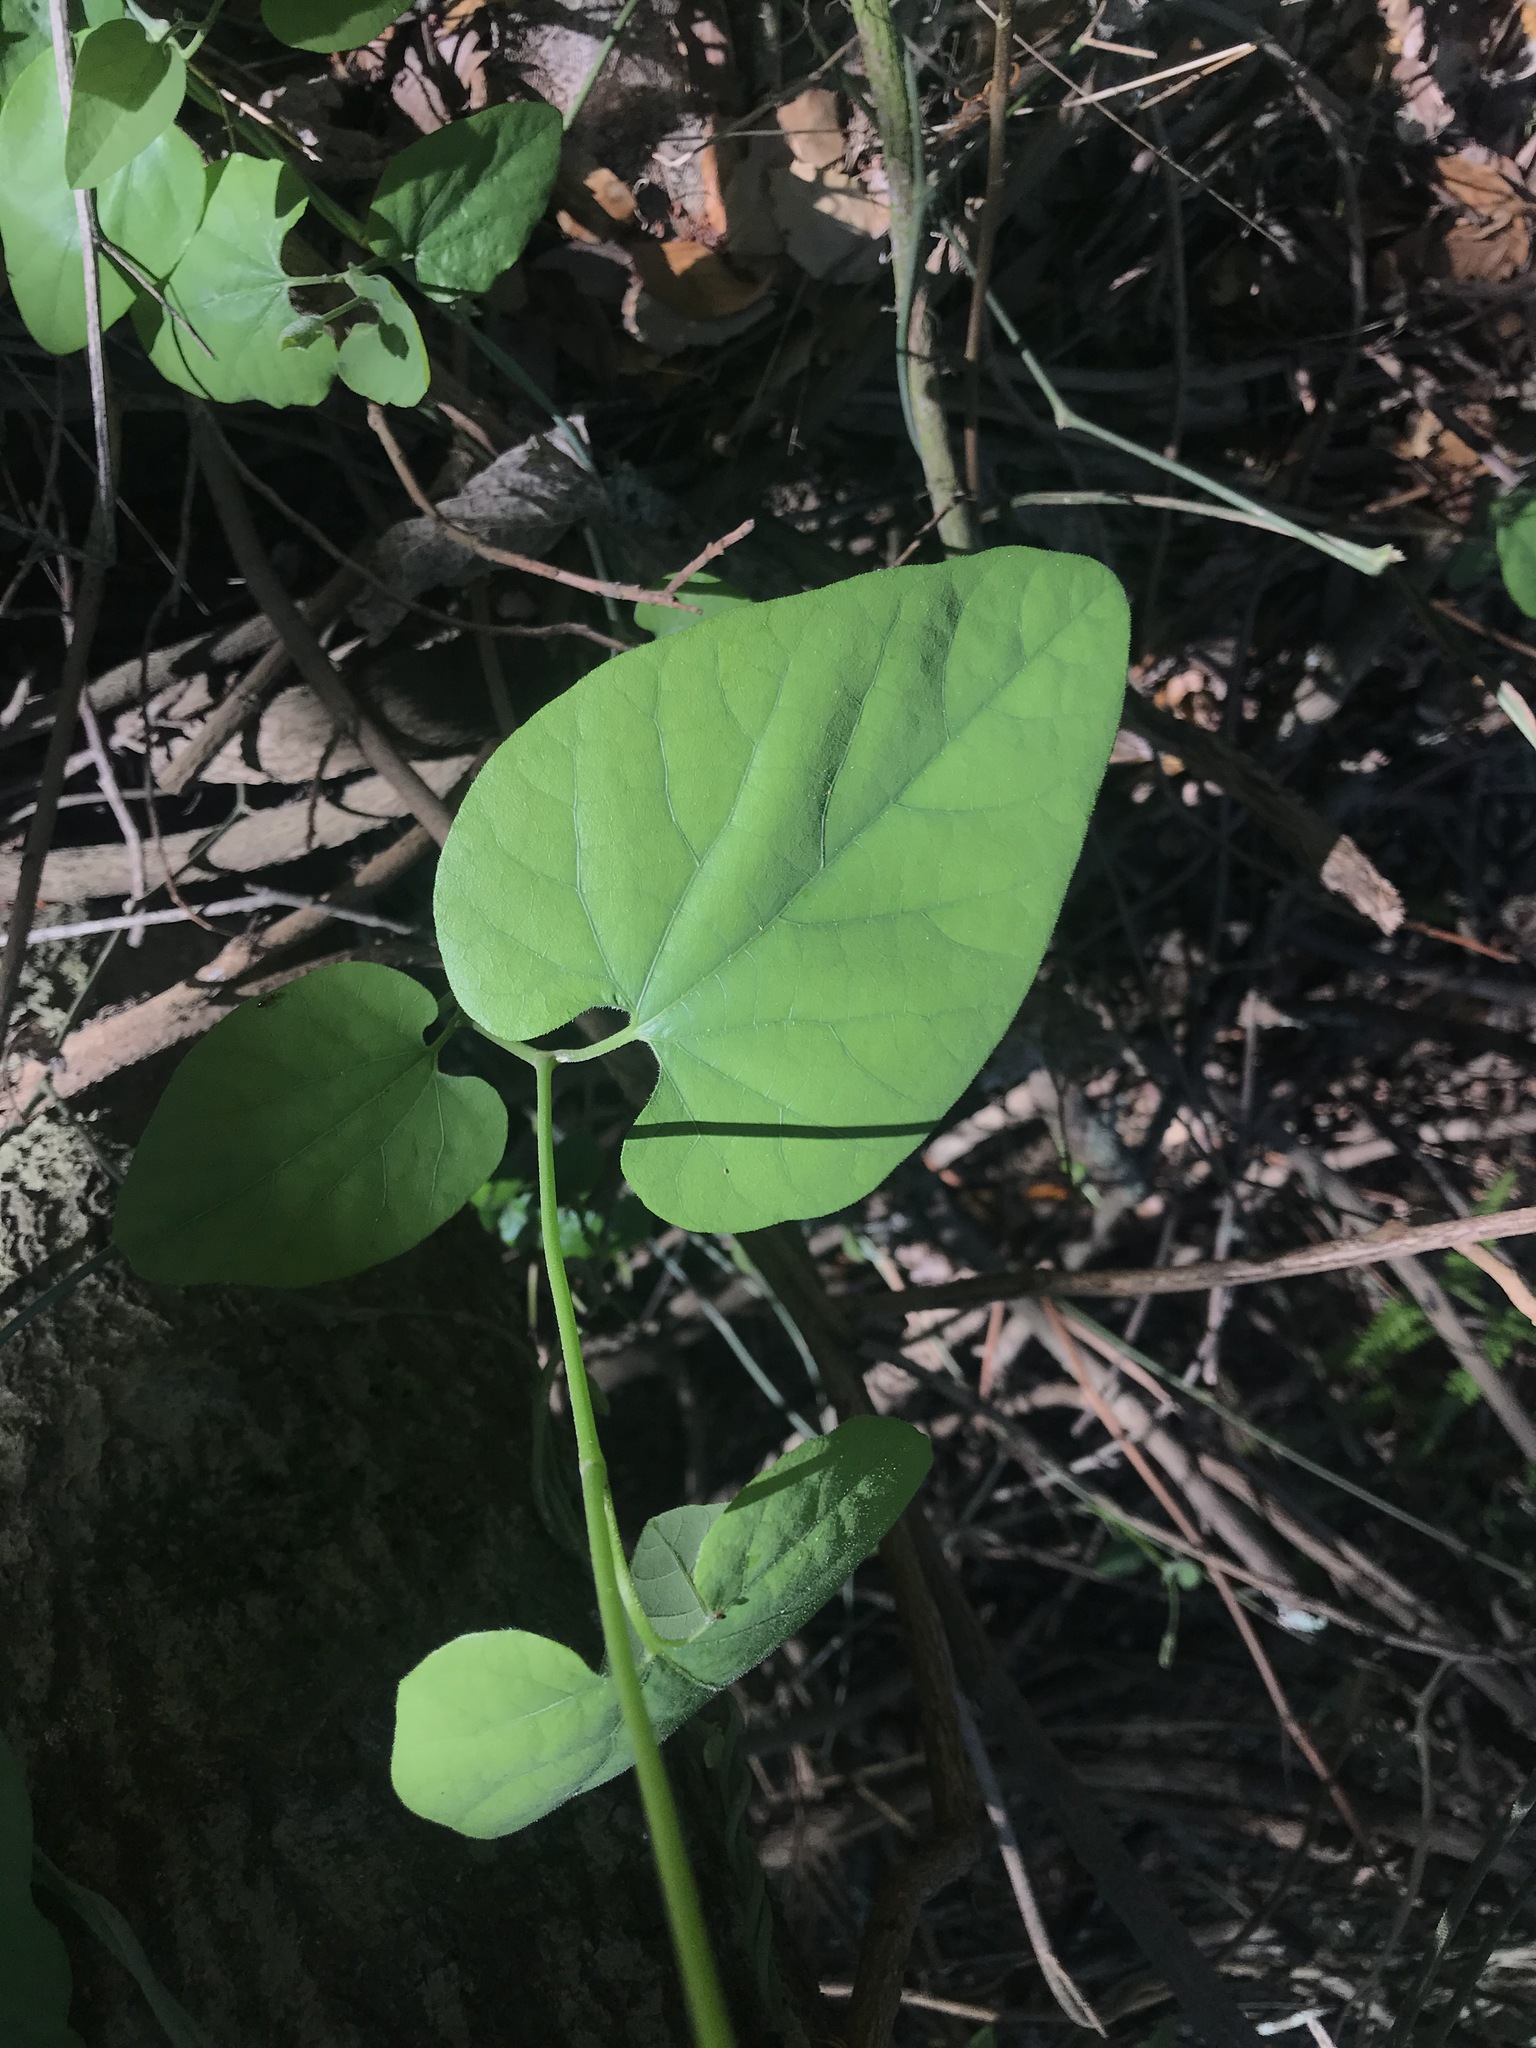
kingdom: Plantae
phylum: Tracheophyta
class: Magnoliopsida
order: Piperales
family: Aristolochiaceae
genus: Isotrema
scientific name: Isotrema californicum
